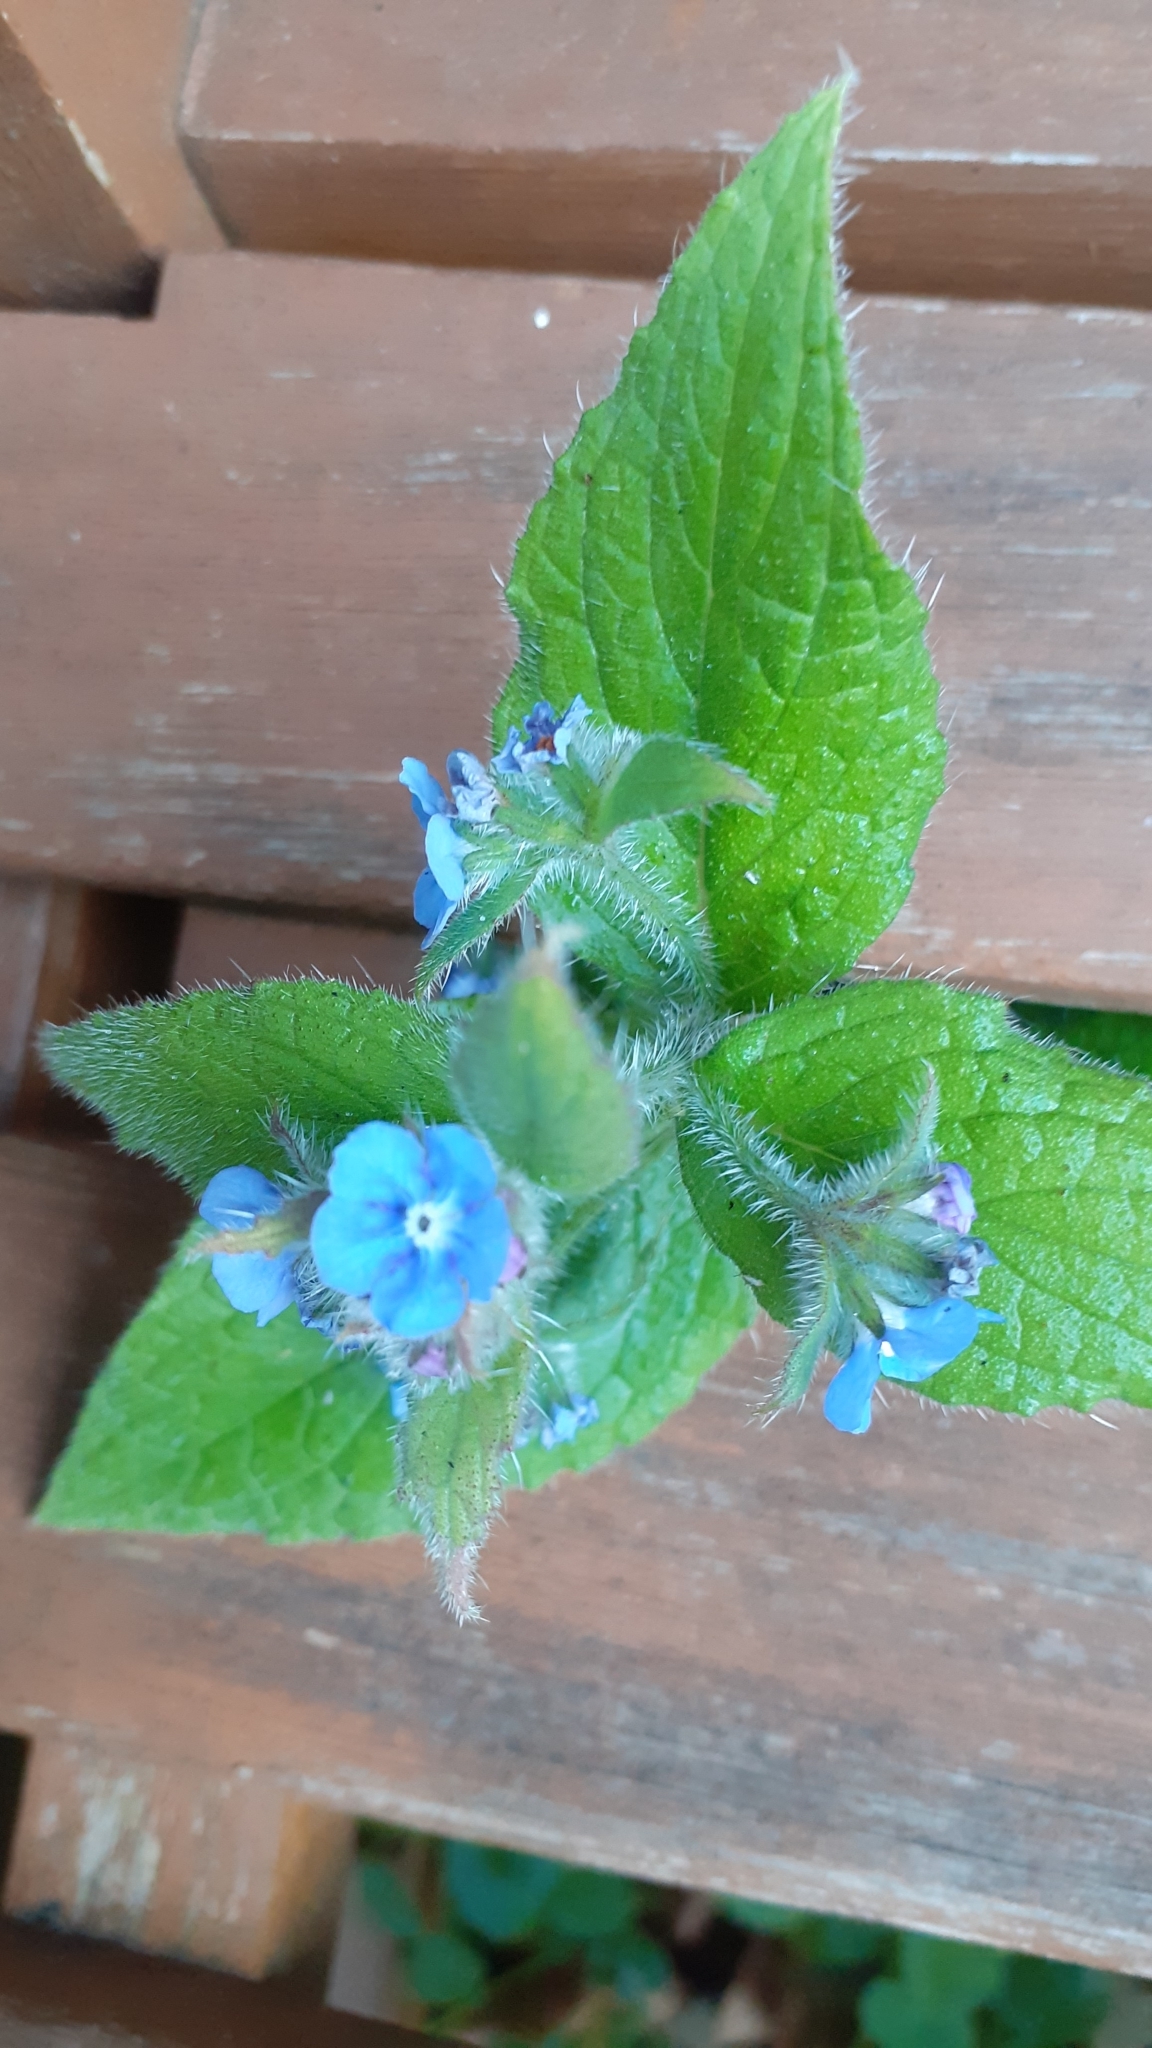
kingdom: Plantae
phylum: Tracheophyta
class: Magnoliopsida
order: Boraginales
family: Boraginaceae
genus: Pentaglottis
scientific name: Pentaglottis sempervirens
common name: Green alkanet
